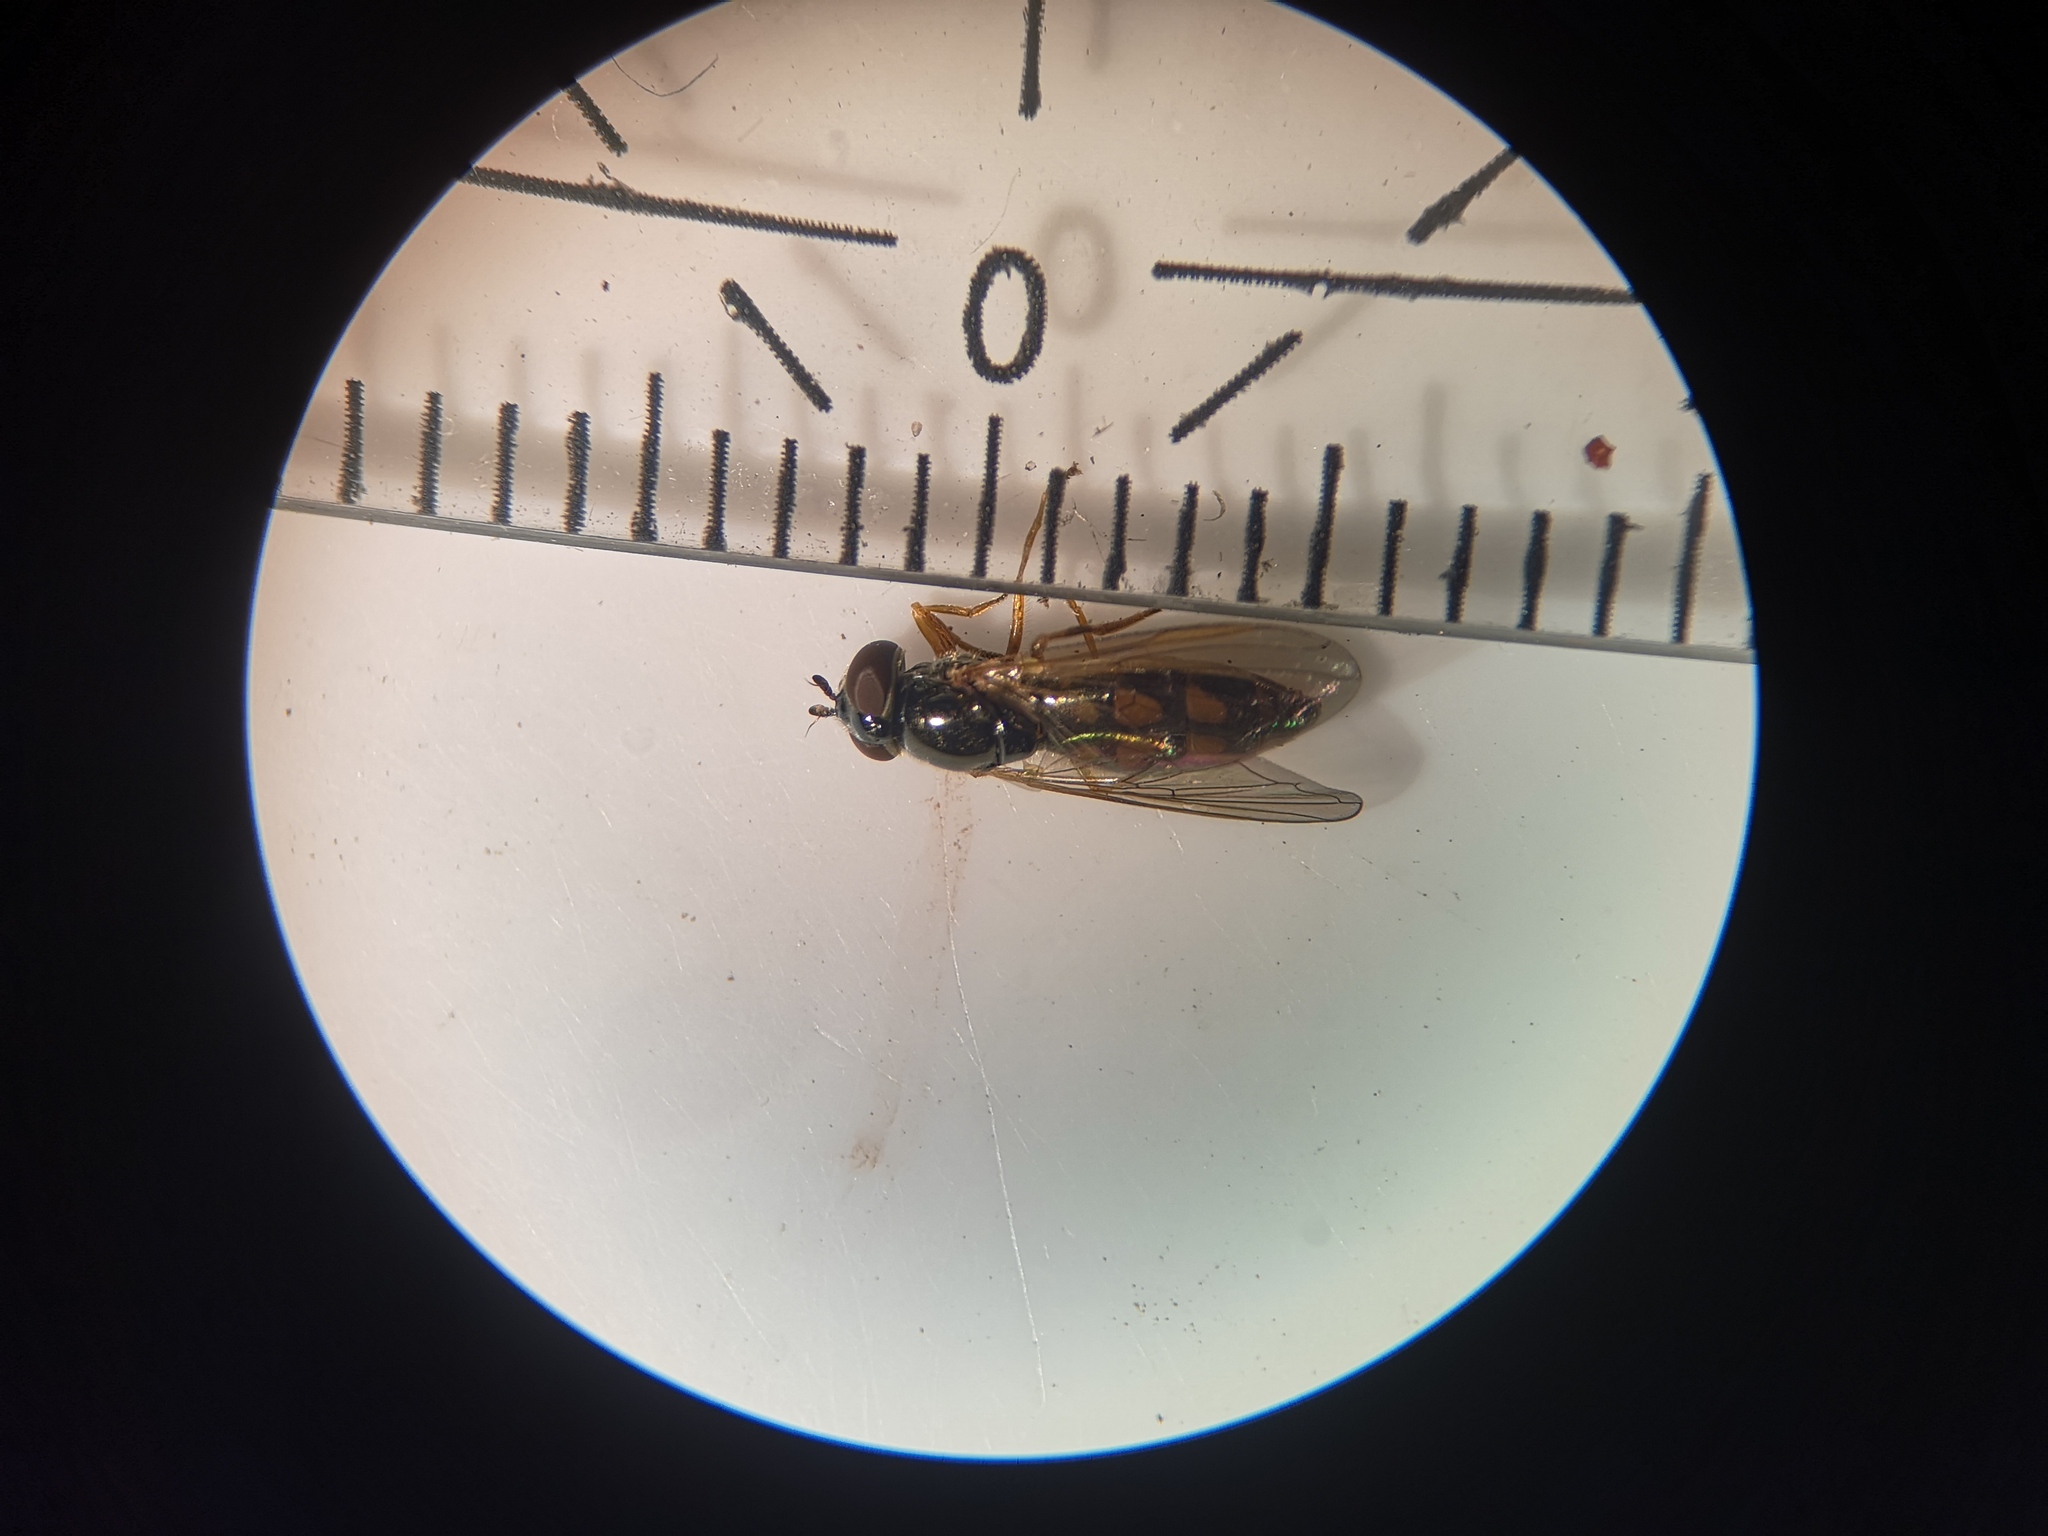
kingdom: Animalia
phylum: Arthropoda
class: Insecta
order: Diptera
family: Syrphidae
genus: Melanostoma
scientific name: Melanostoma scalare
